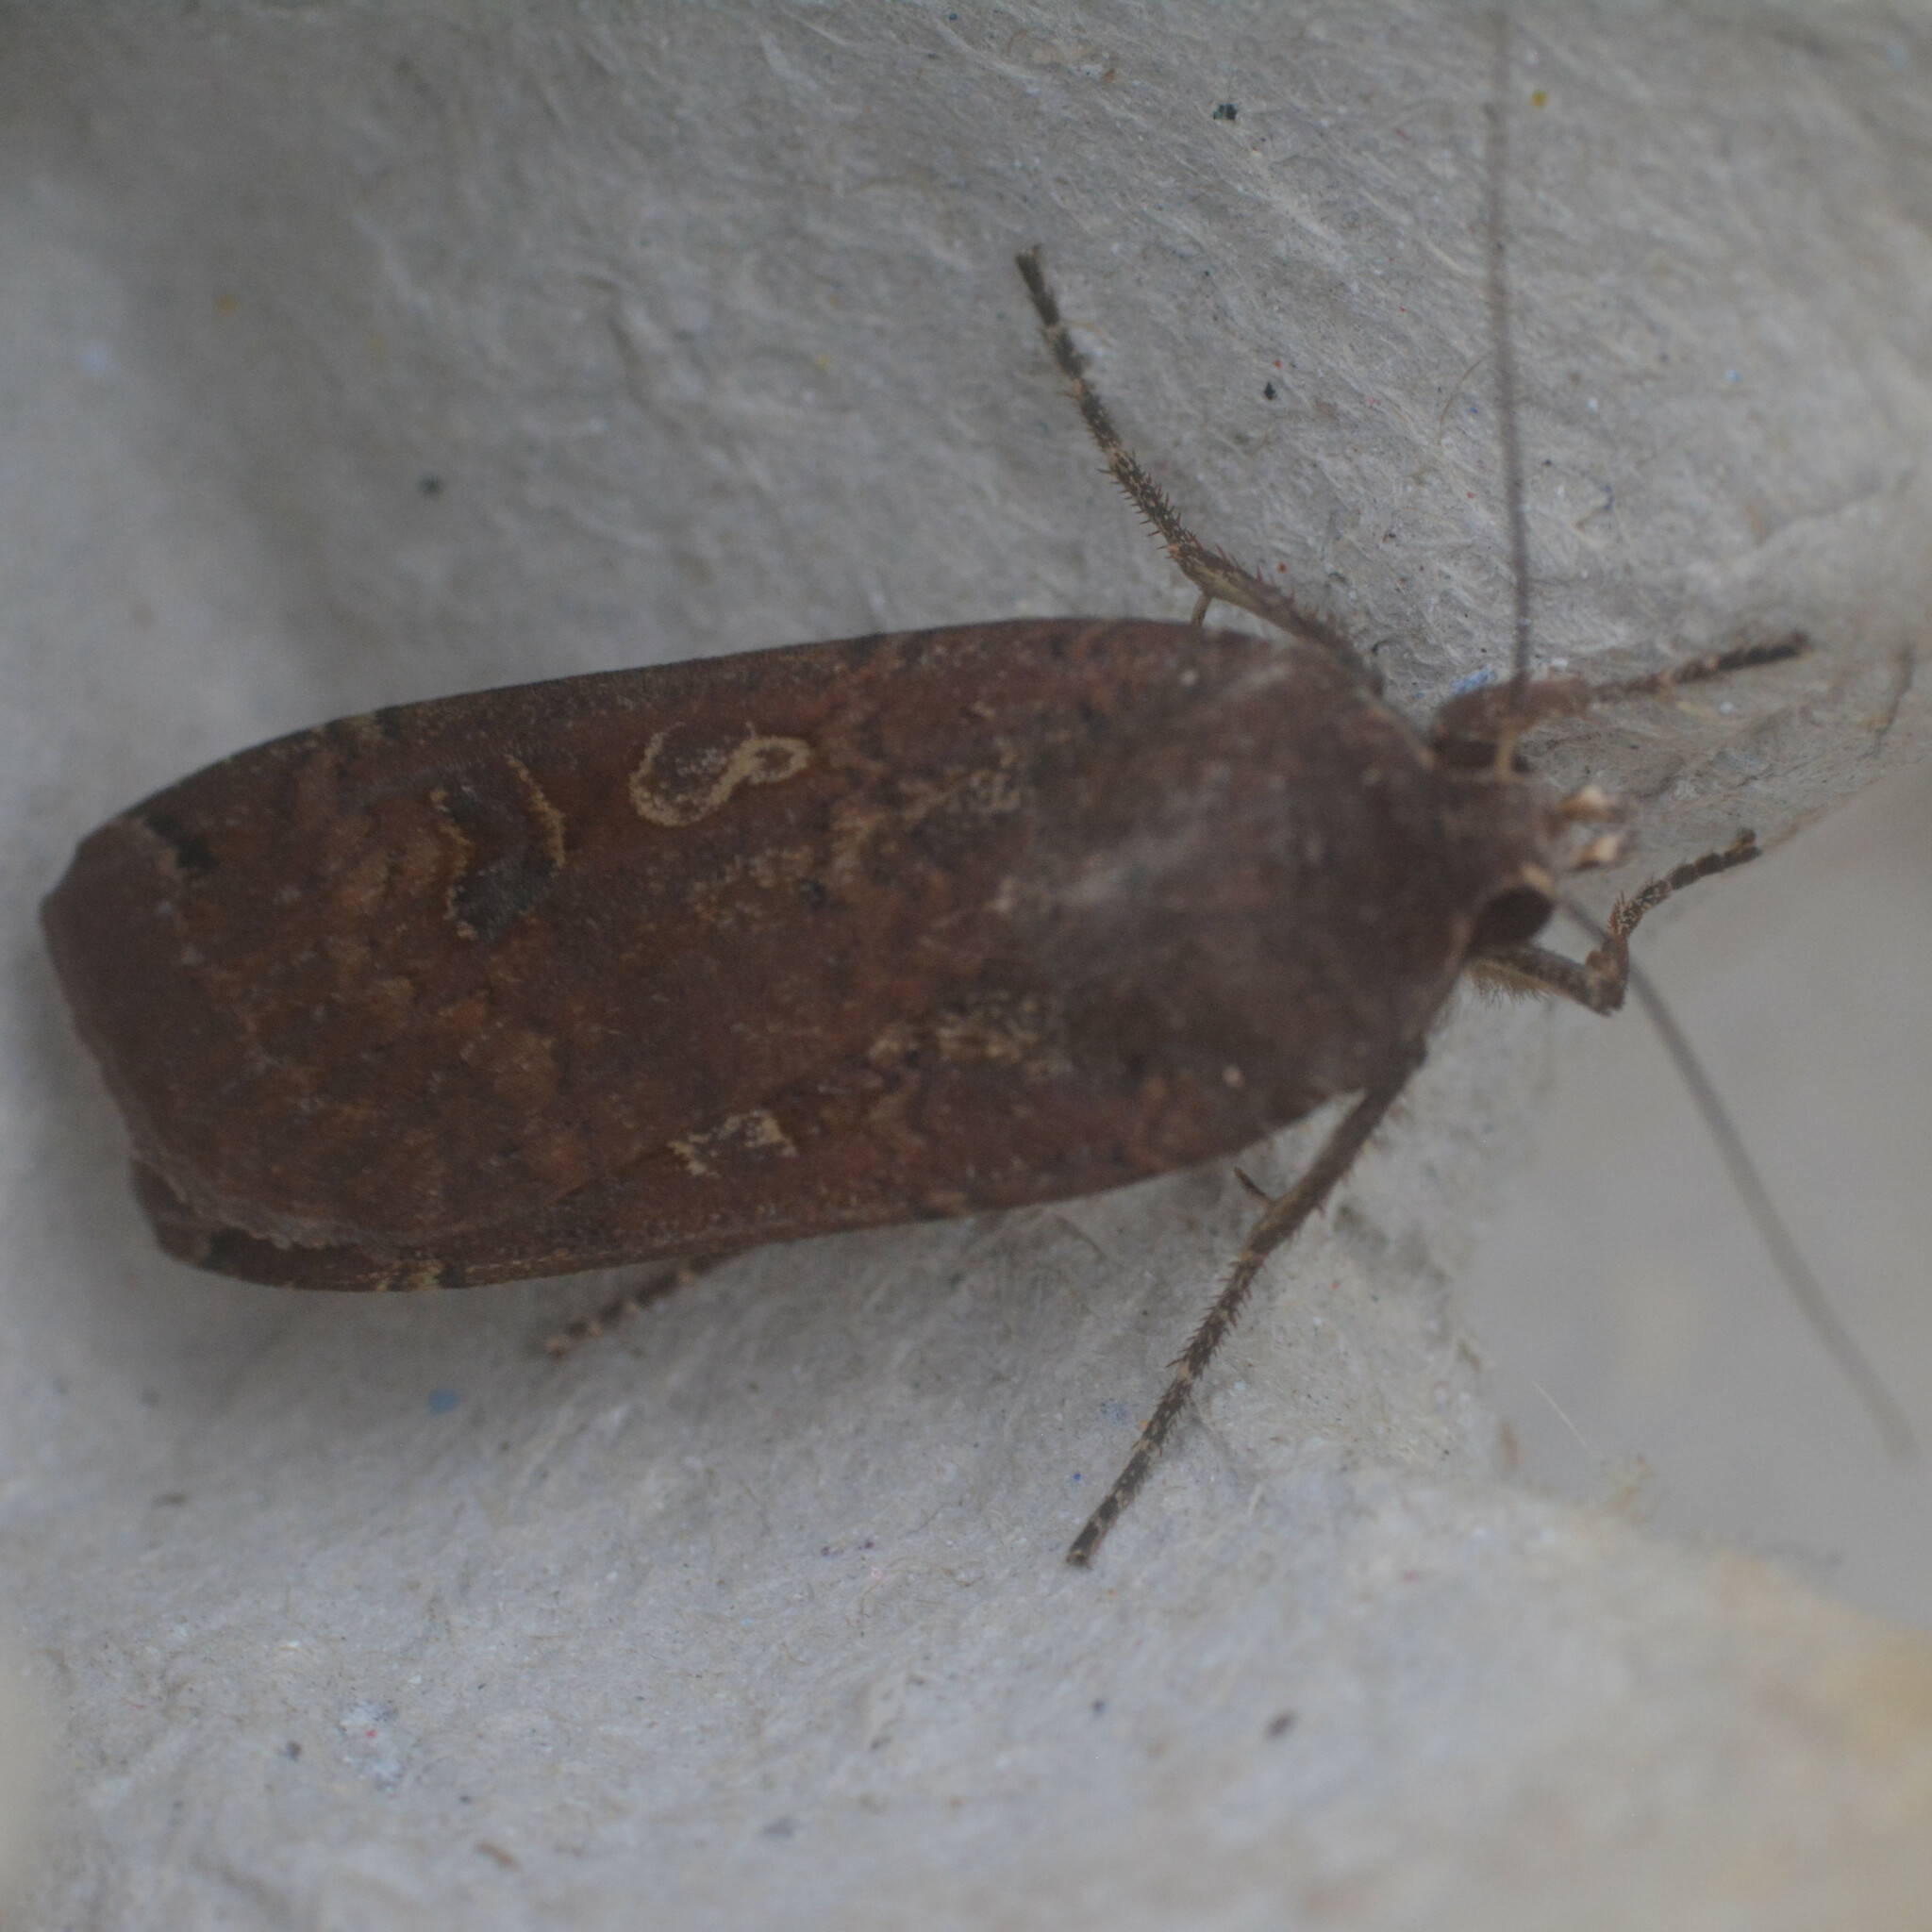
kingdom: Animalia
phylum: Arthropoda
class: Insecta
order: Lepidoptera
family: Noctuidae
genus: Noctua
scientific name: Noctua pronuba
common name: Large yellow underwing
